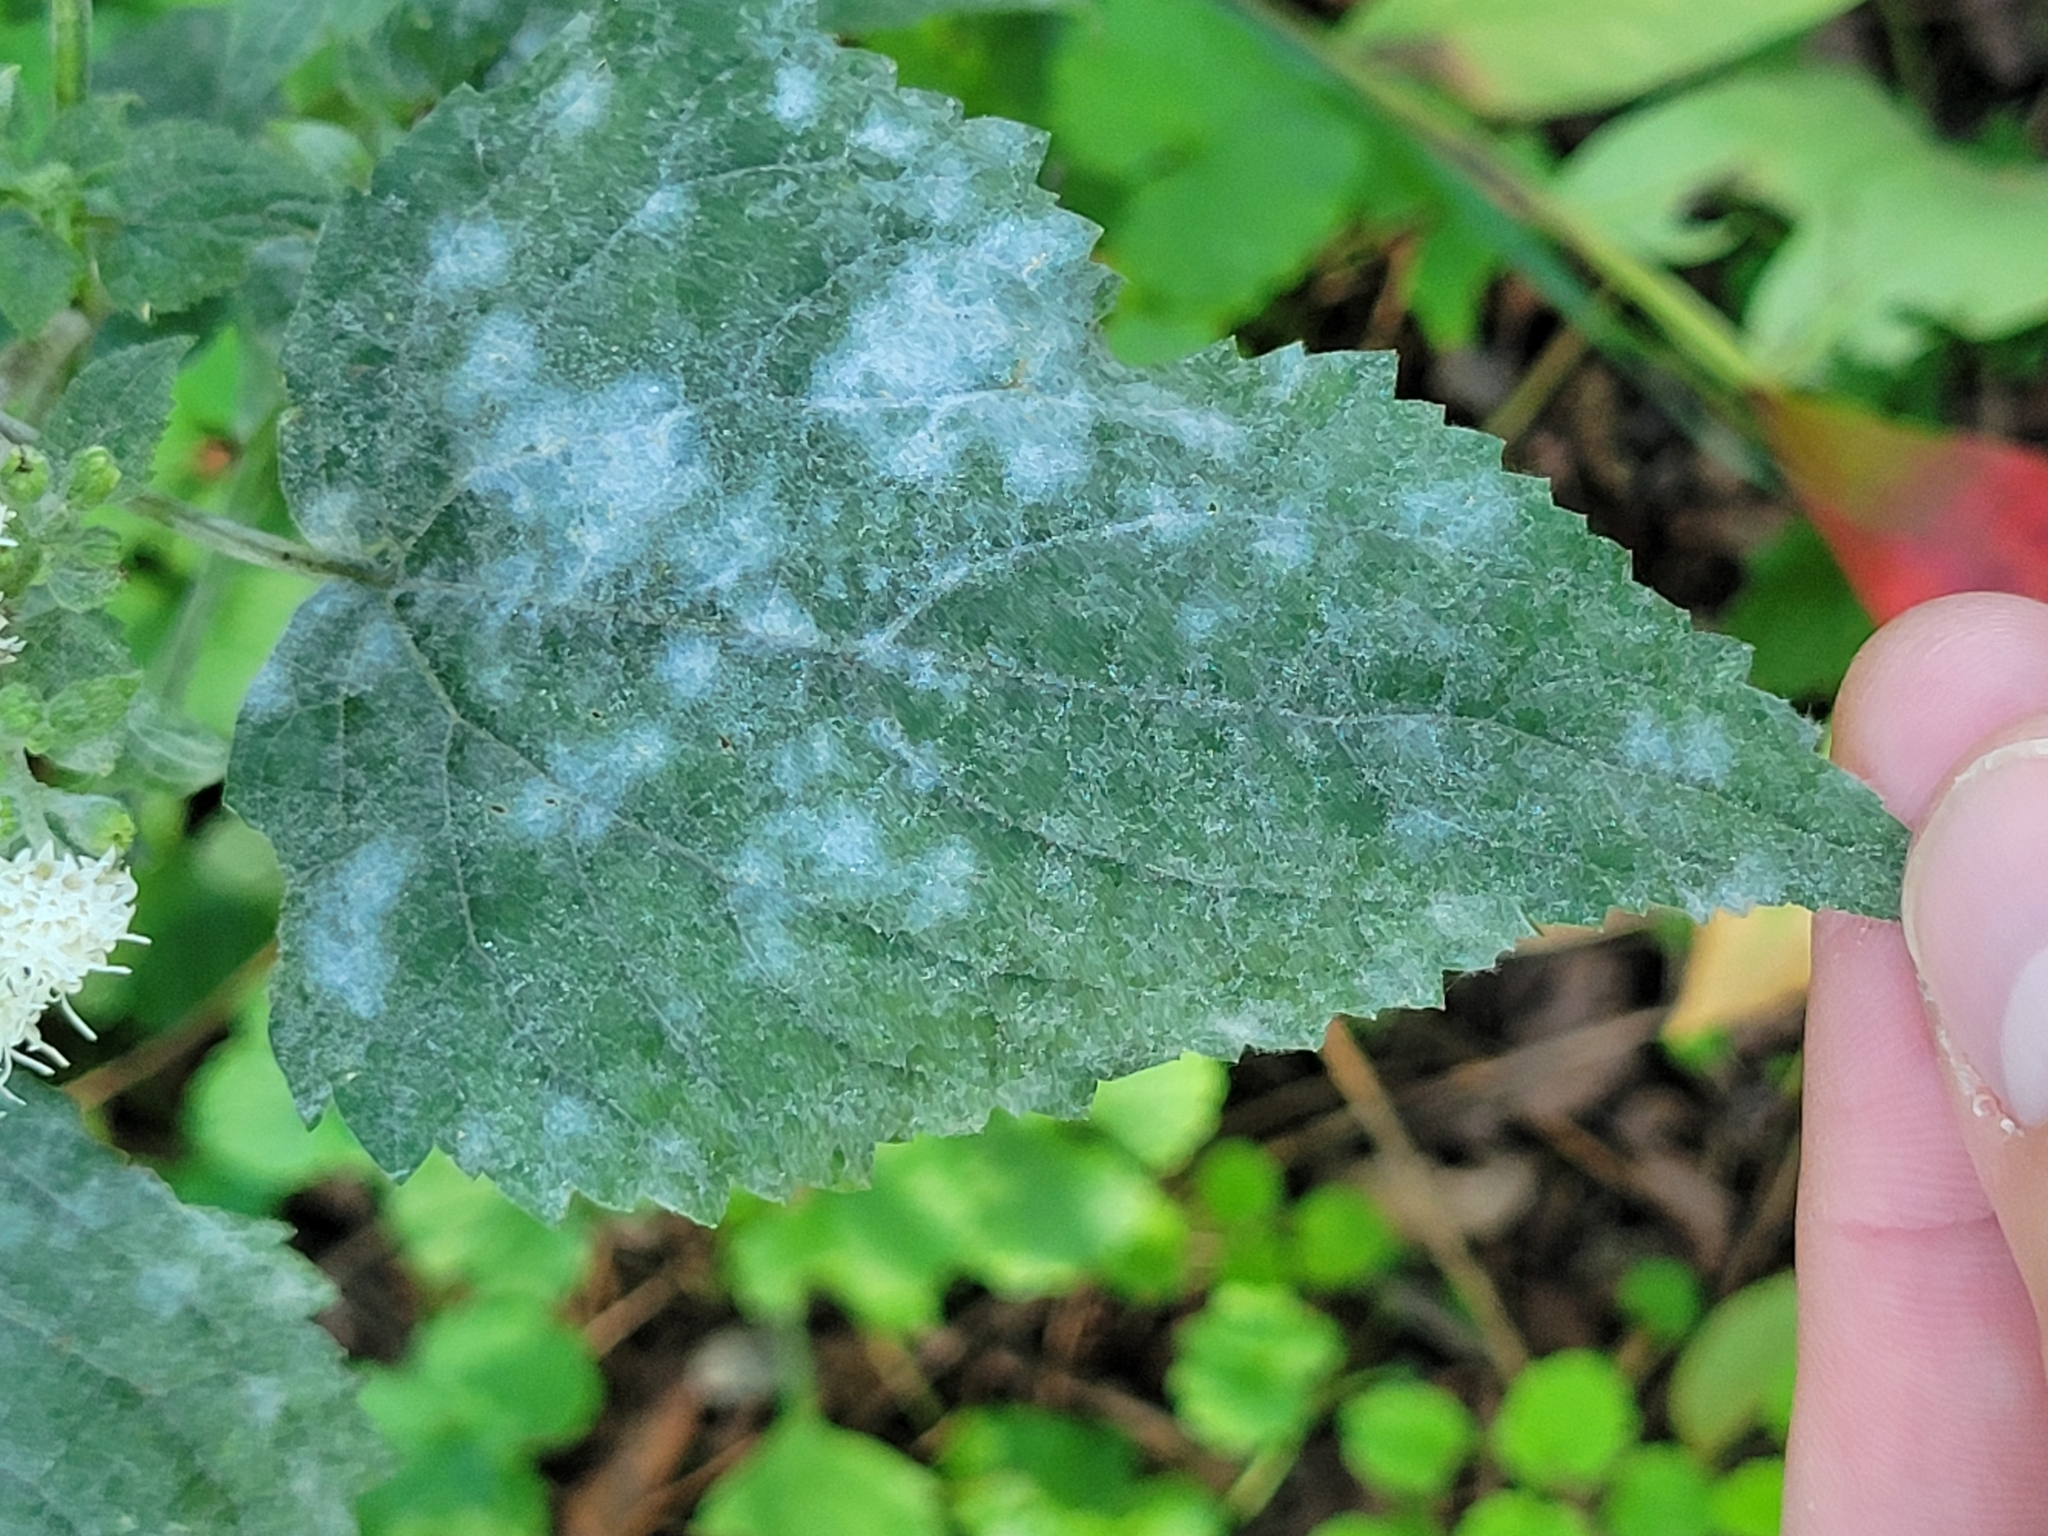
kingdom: Plantae
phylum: Tracheophyta
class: Magnoliopsida
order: Asterales
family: Asteraceae
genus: Ageratina
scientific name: Ageratina altissima
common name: White snakeroot
